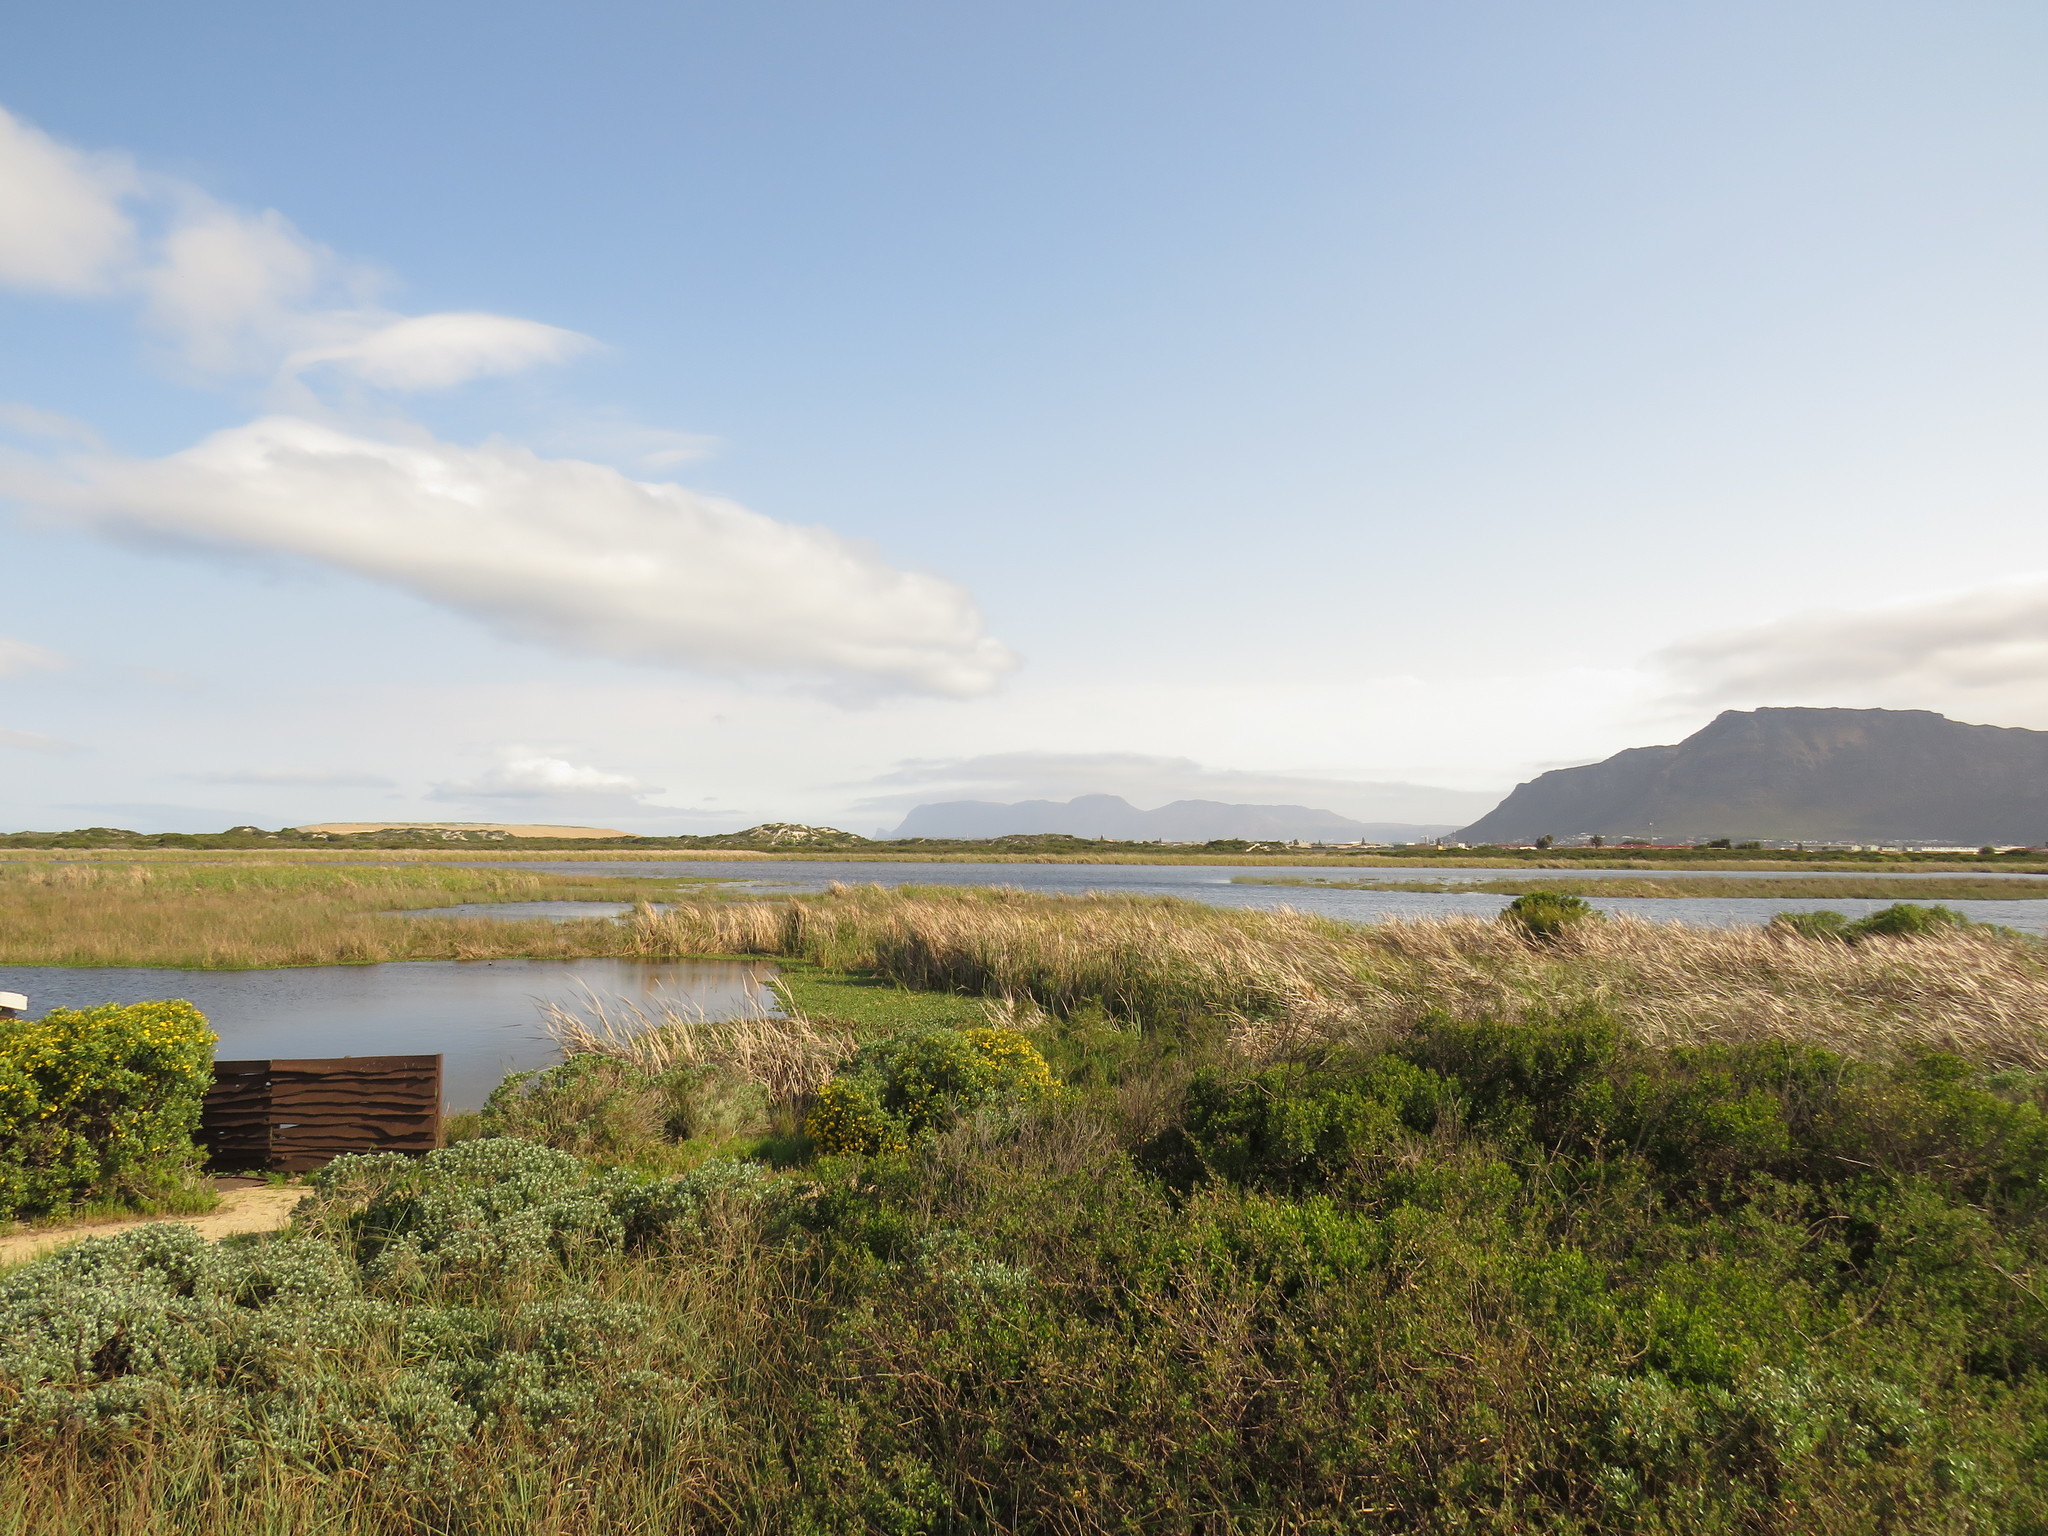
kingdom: Plantae
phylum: Tracheophyta
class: Liliopsida
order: Commelinales
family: Pontederiaceae
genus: Pontederia
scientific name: Pontederia crassipes
